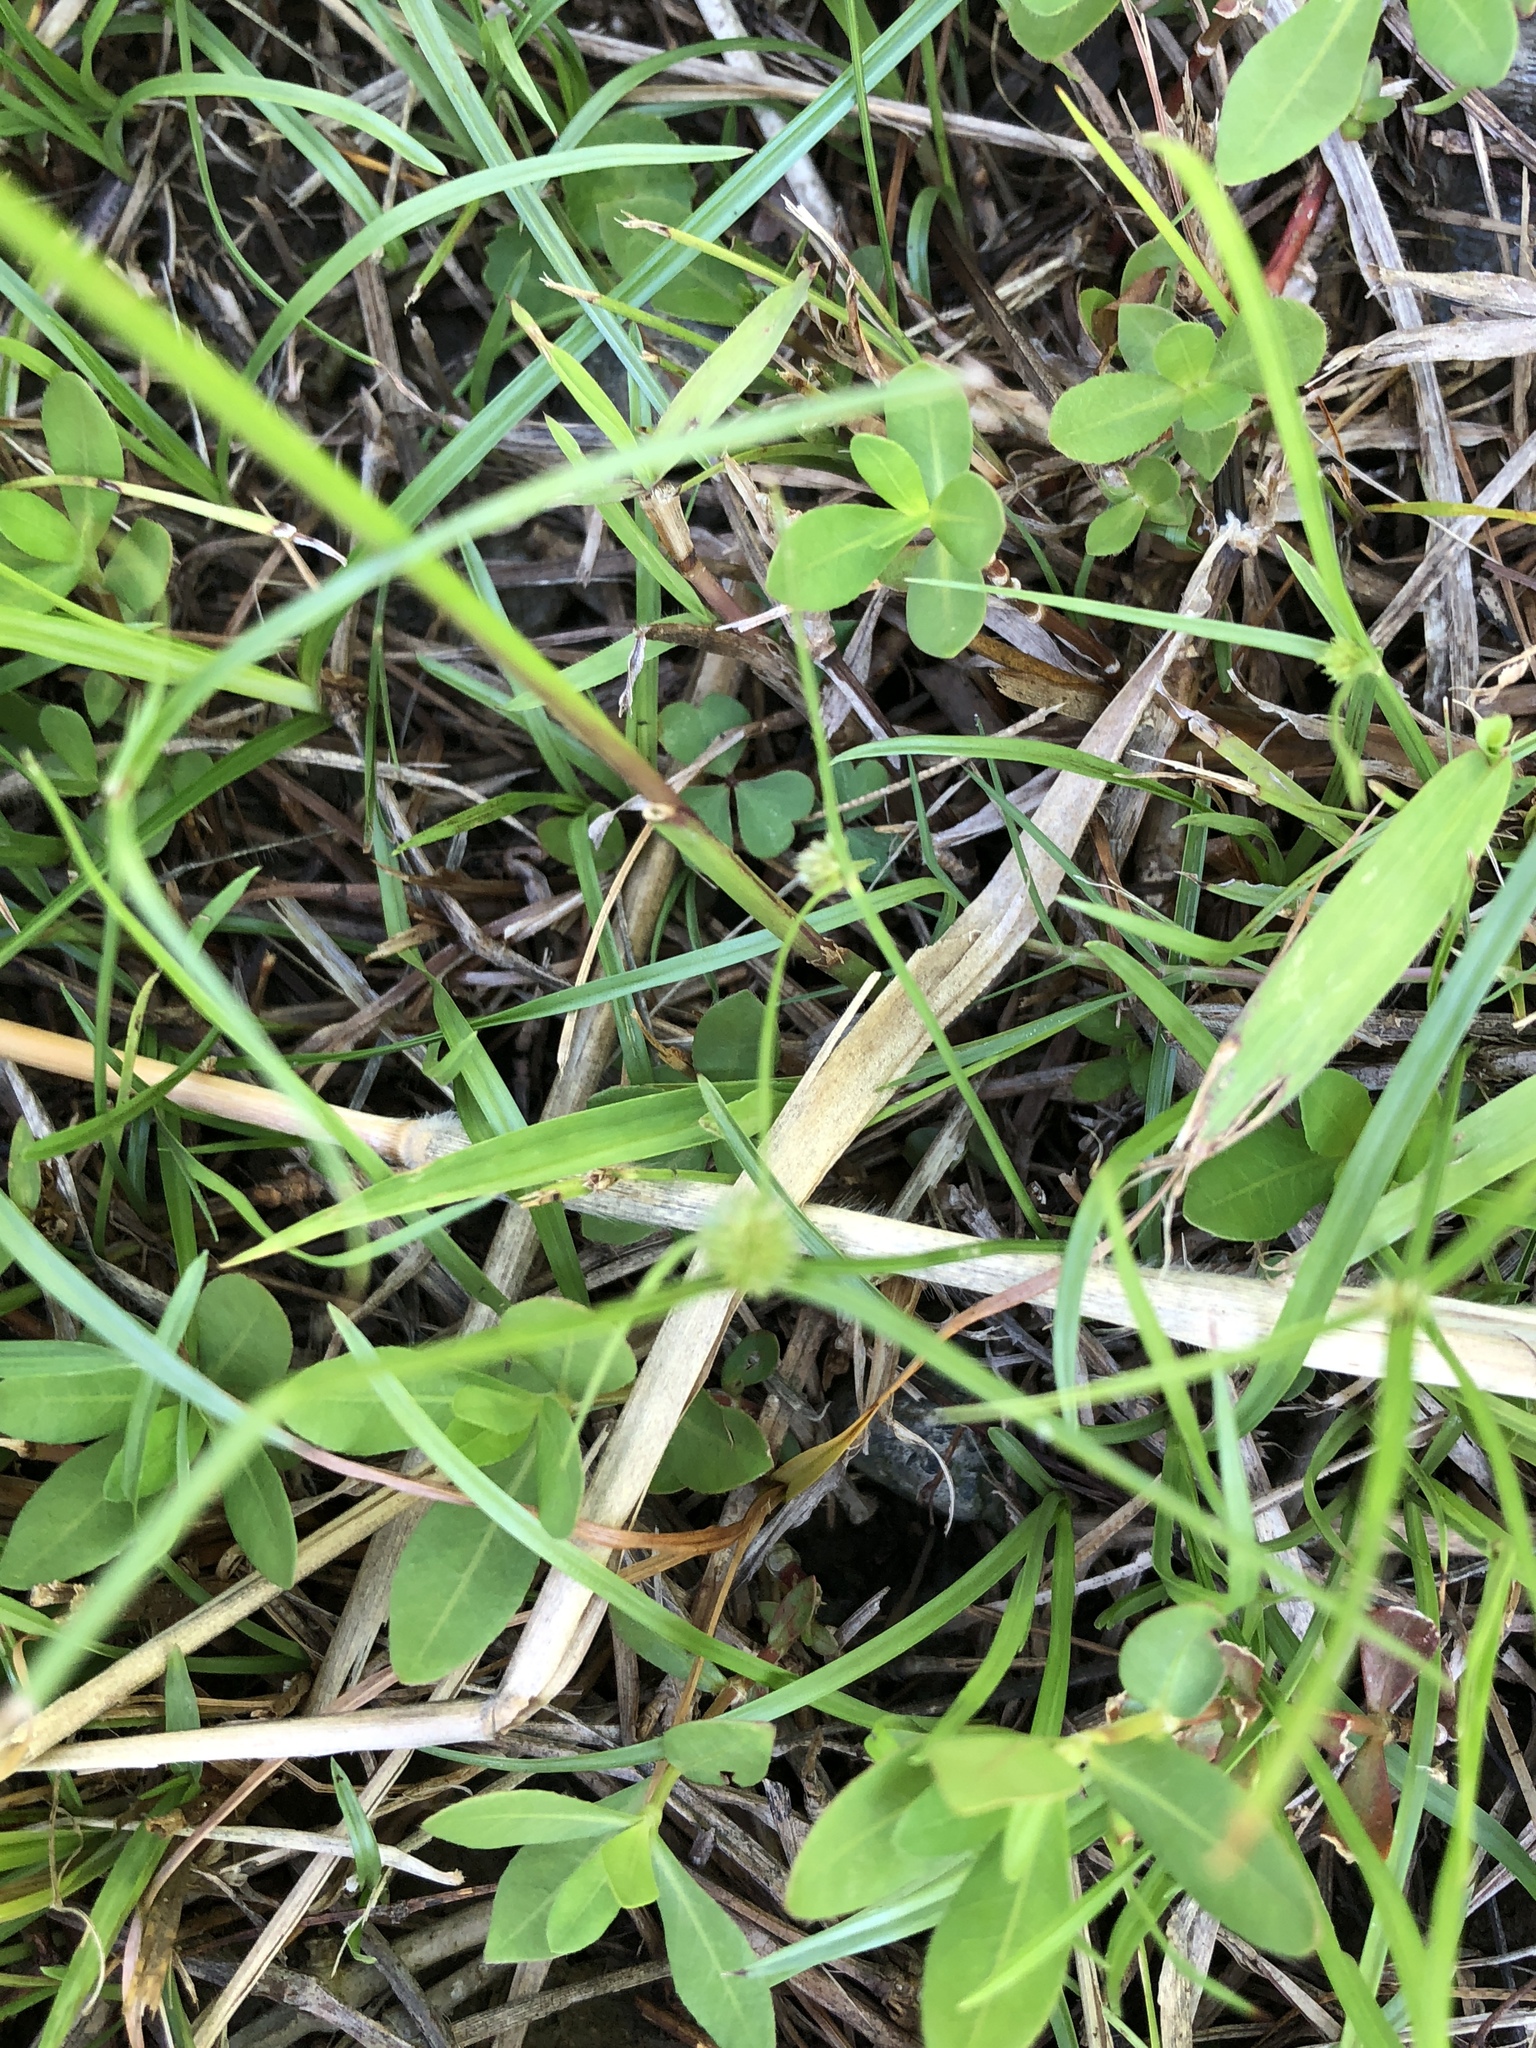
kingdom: Plantae
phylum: Tracheophyta
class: Liliopsida
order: Poales
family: Cyperaceae
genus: Cyperus
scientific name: Cyperus brevifolius
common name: Globe kyllinga
